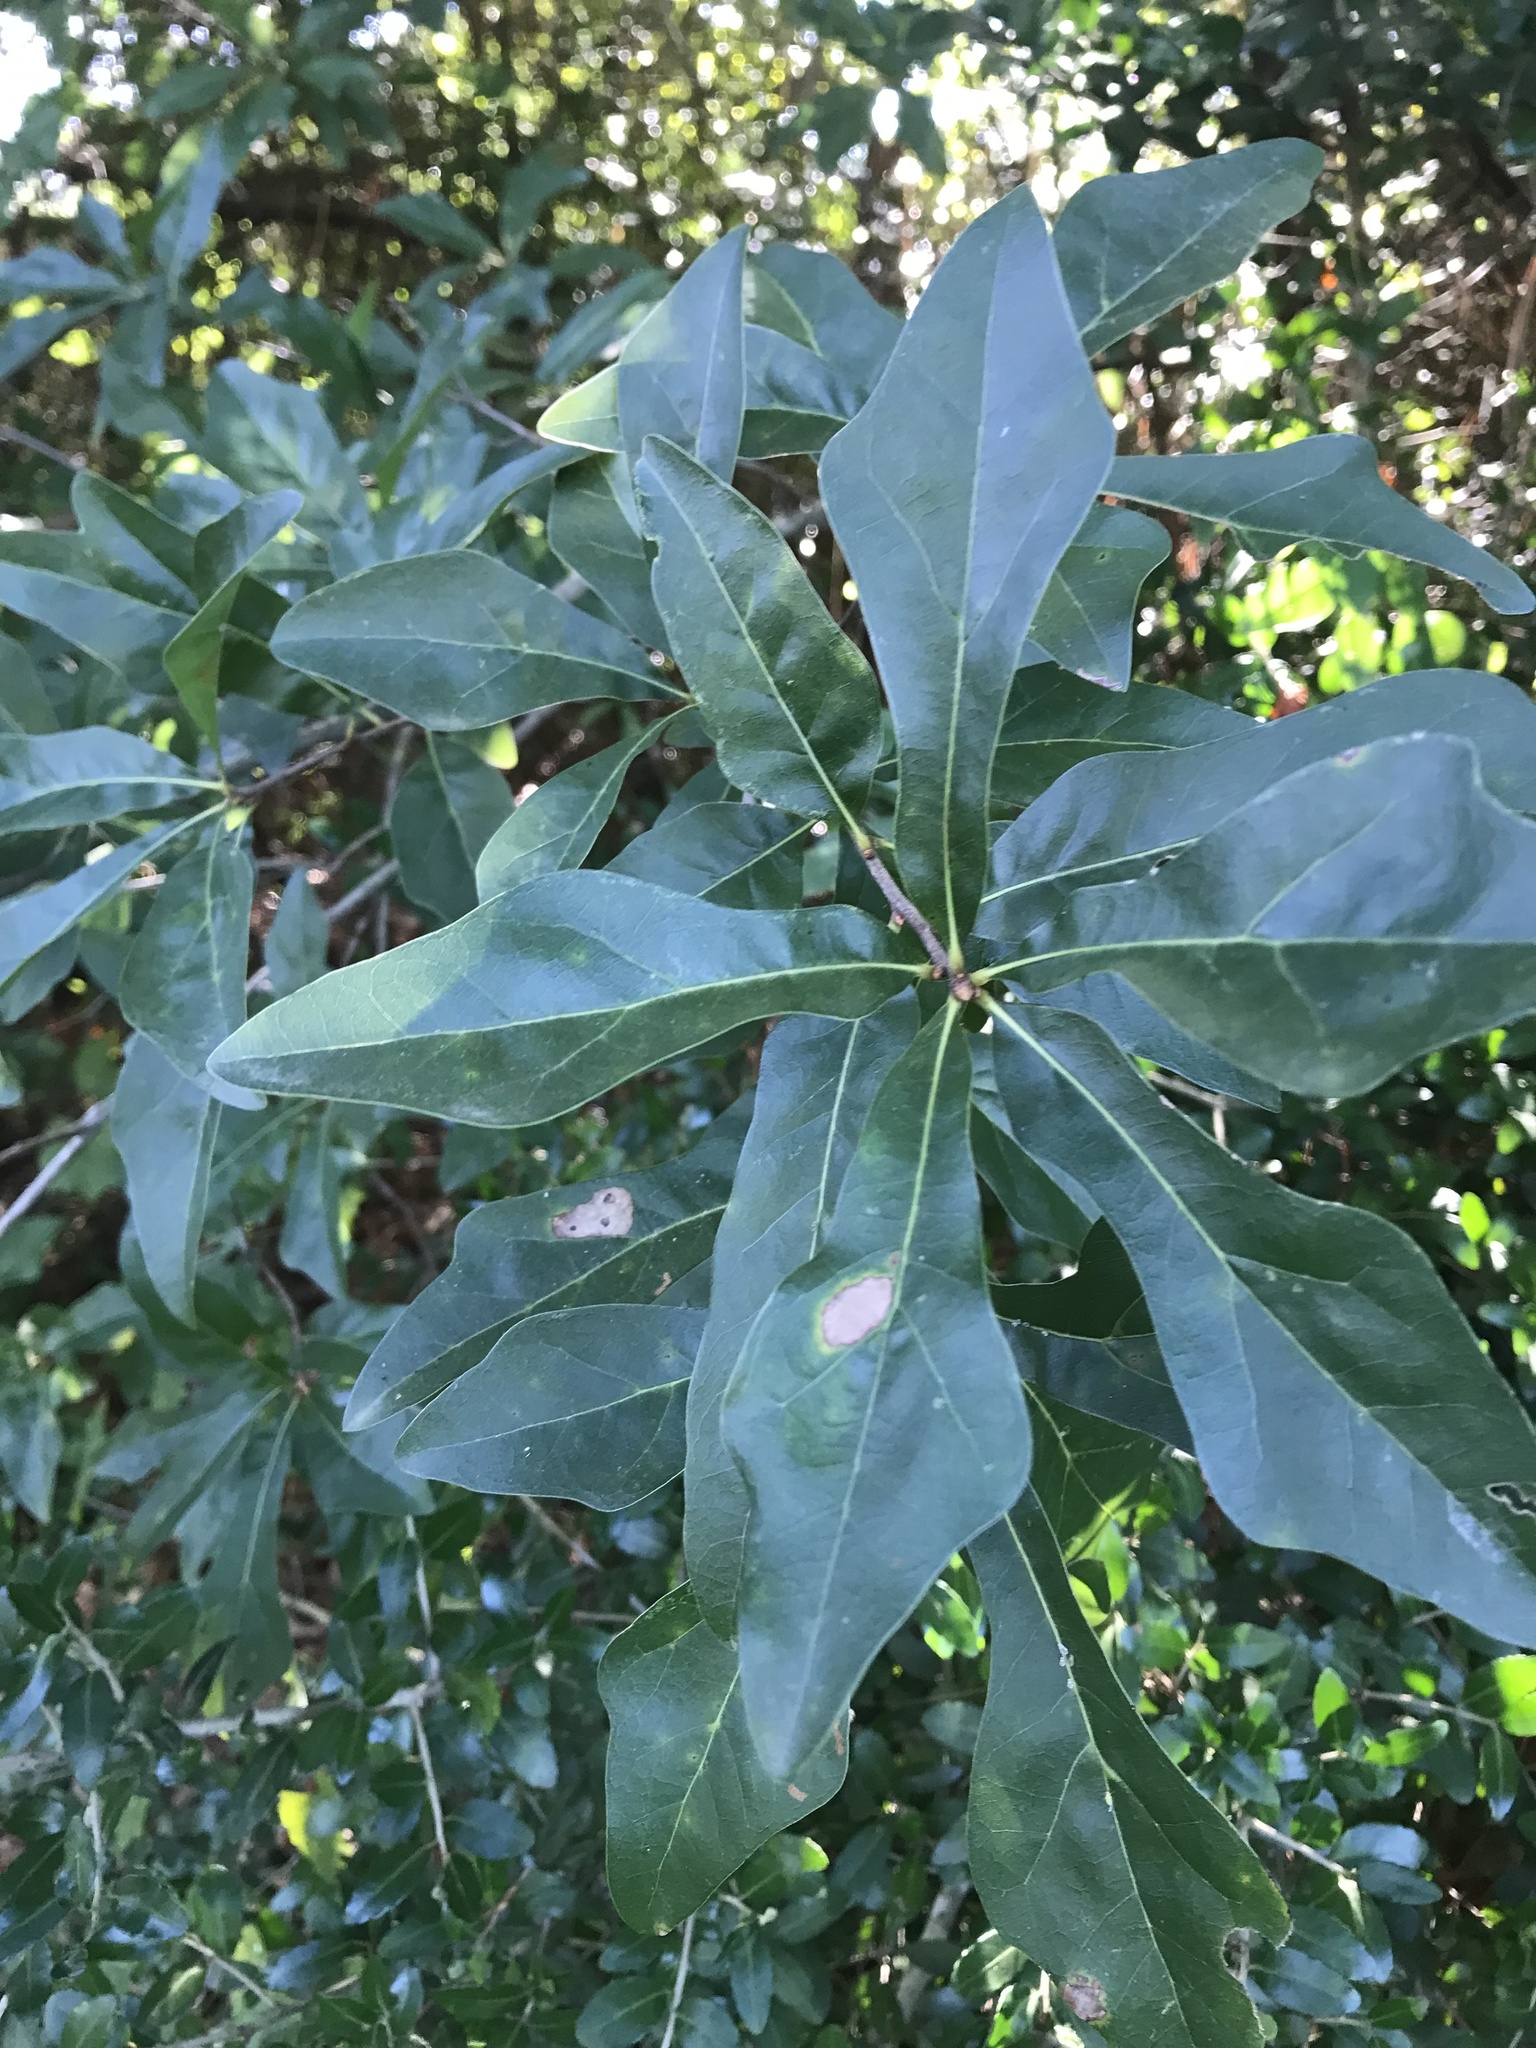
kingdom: Plantae
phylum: Tracheophyta
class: Magnoliopsida
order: Fagales
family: Fagaceae
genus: Quercus
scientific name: Quercus nigra
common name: Water oak
